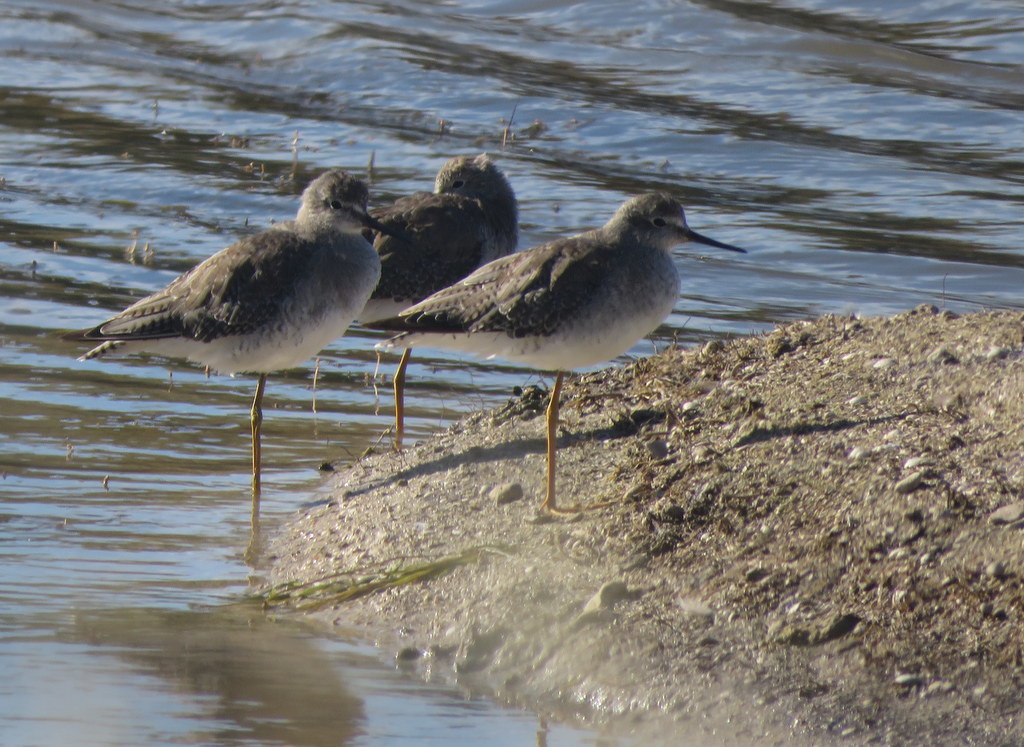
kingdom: Animalia
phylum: Chordata
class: Aves
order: Charadriiformes
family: Scolopacidae
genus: Tringa
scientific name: Tringa flavipes
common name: Lesser yellowlegs
